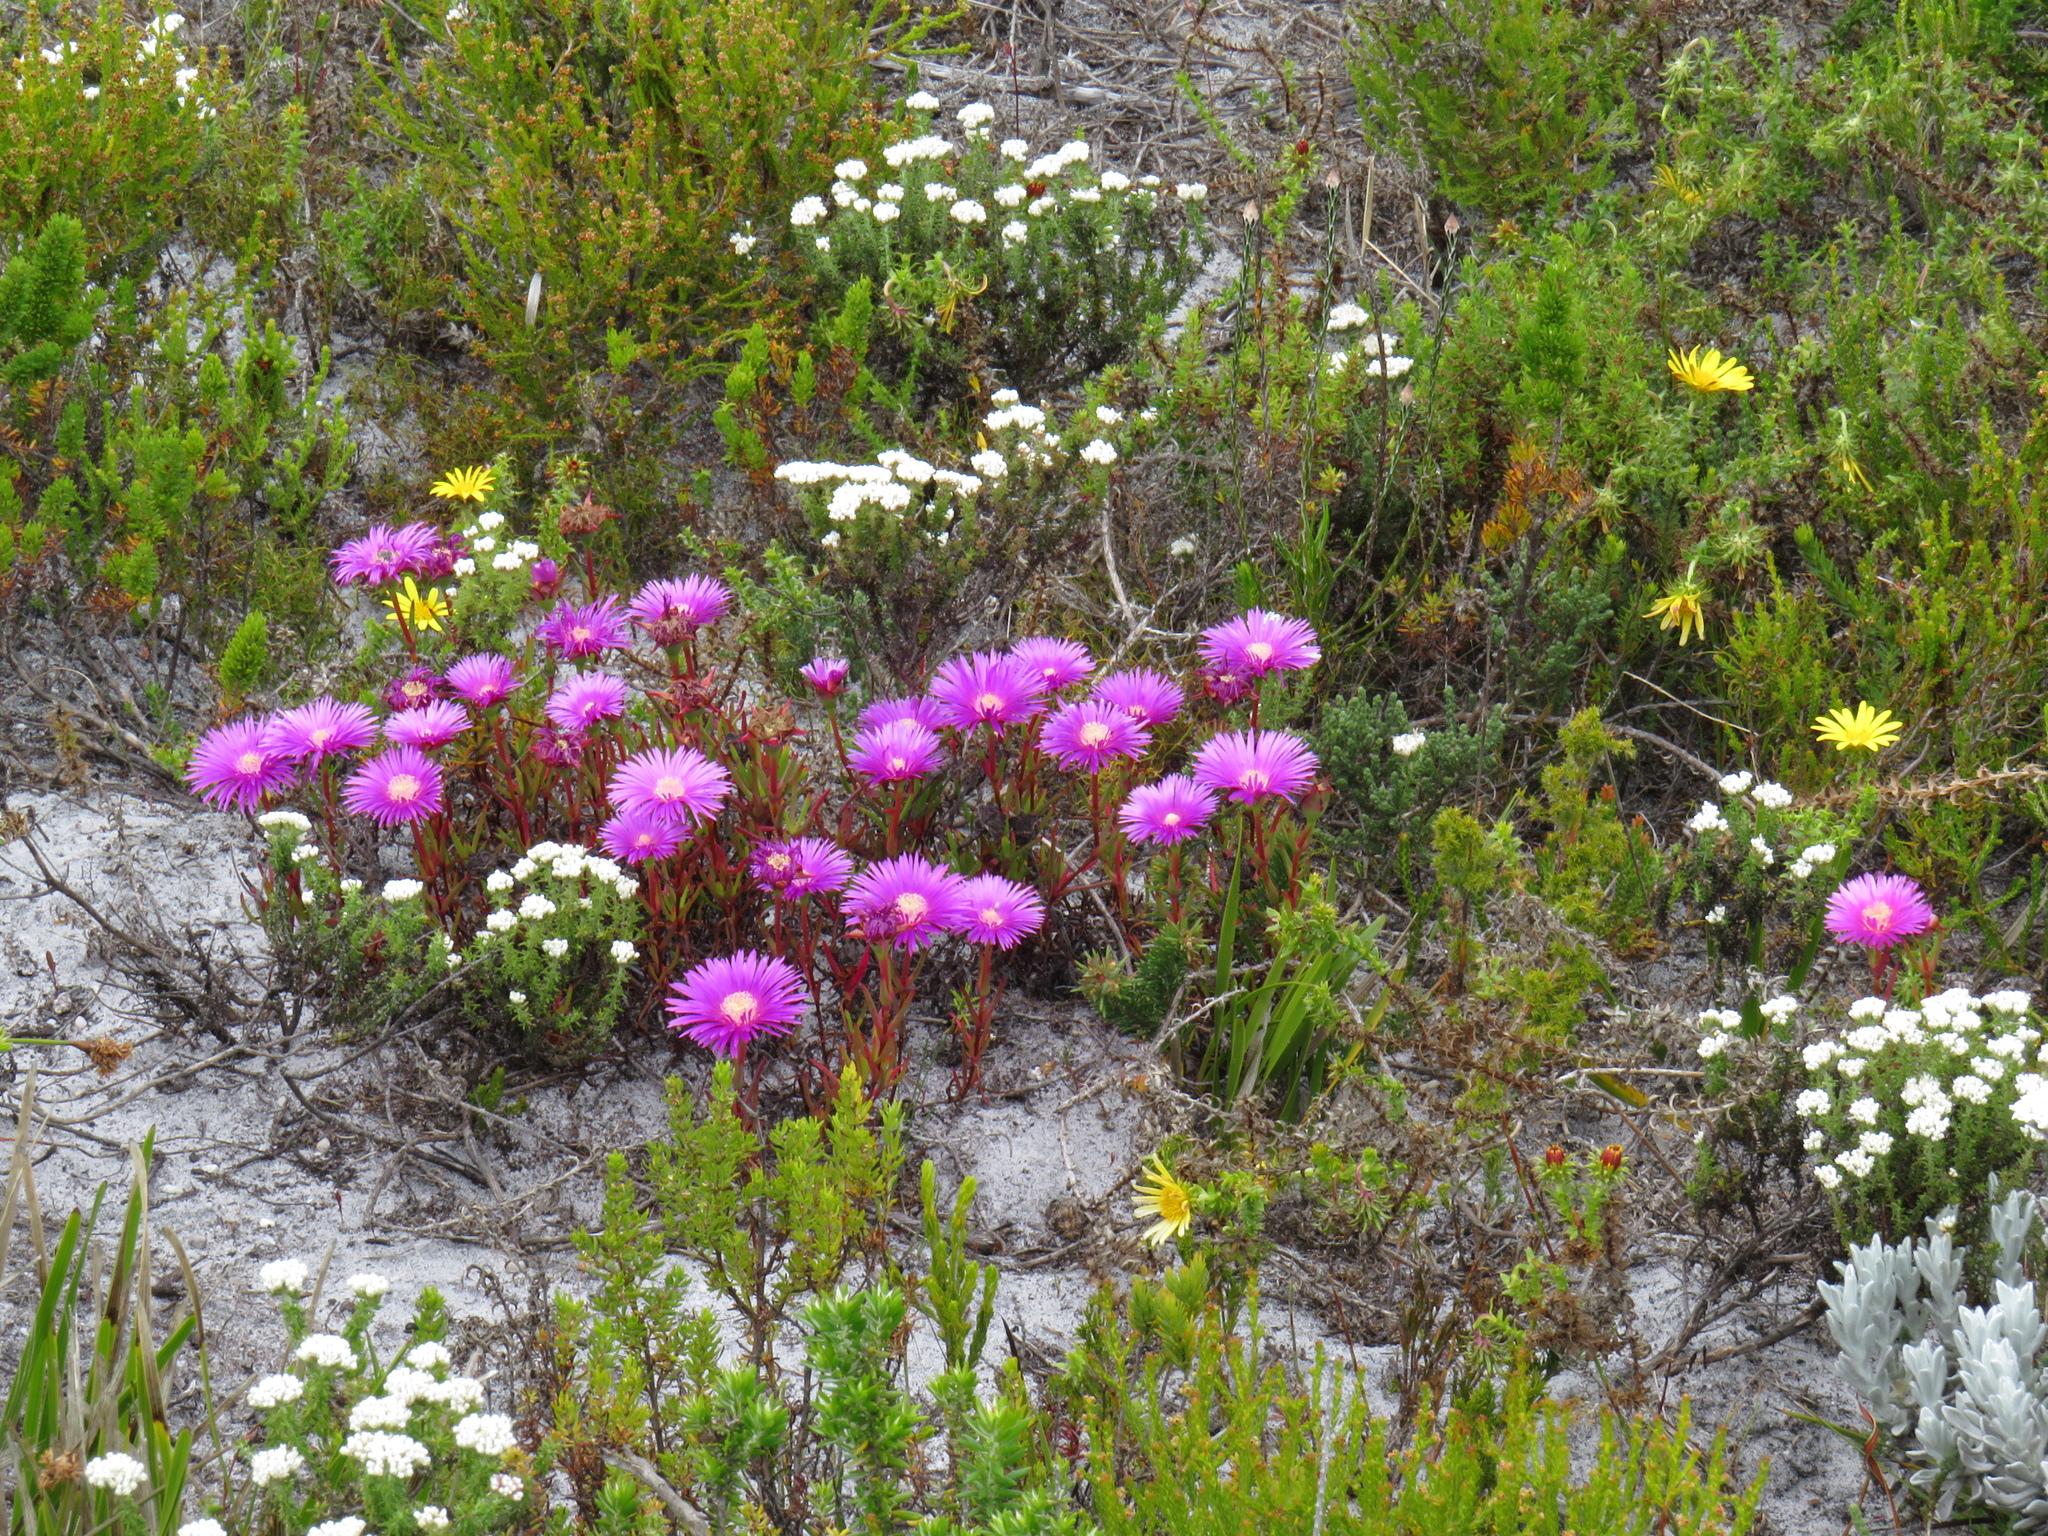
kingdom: Plantae
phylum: Tracheophyta
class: Magnoliopsida
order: Caryophyllales
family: Aizoaceae
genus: Lampranthus
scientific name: Lampranthus tenuifolius
